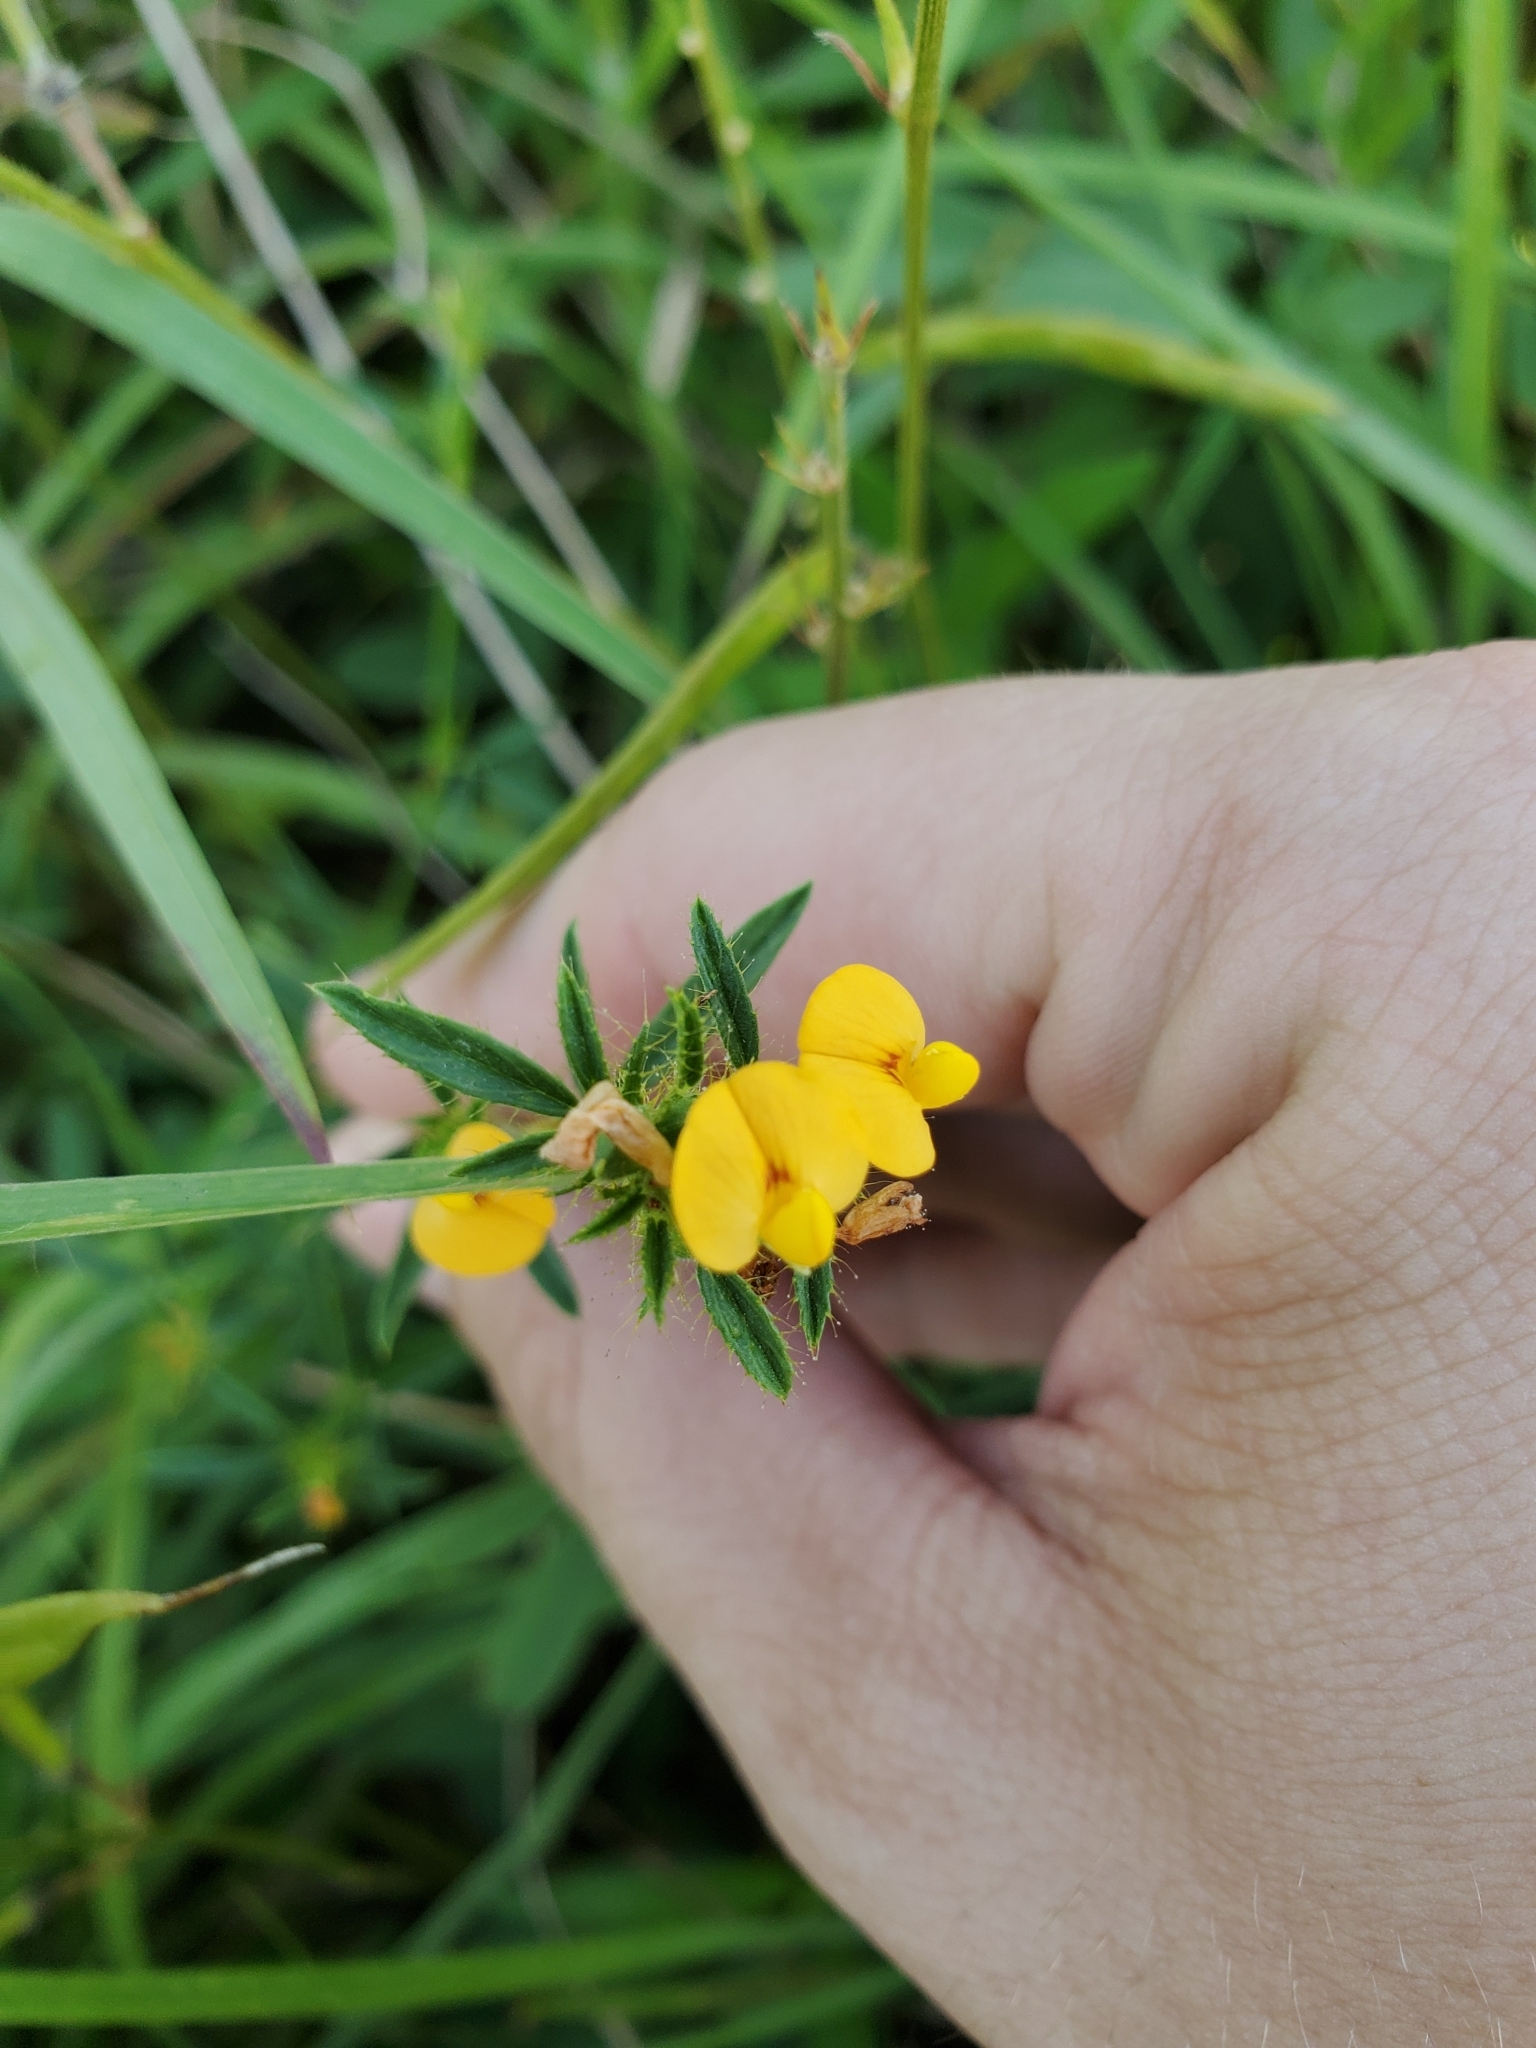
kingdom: Plantae
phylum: Tracheophyta
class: Magnoliopsida
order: Fabales
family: Fabaceae
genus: Stylosanthes
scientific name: Stylosanthes biflora
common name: Two-flower pencil-flower
